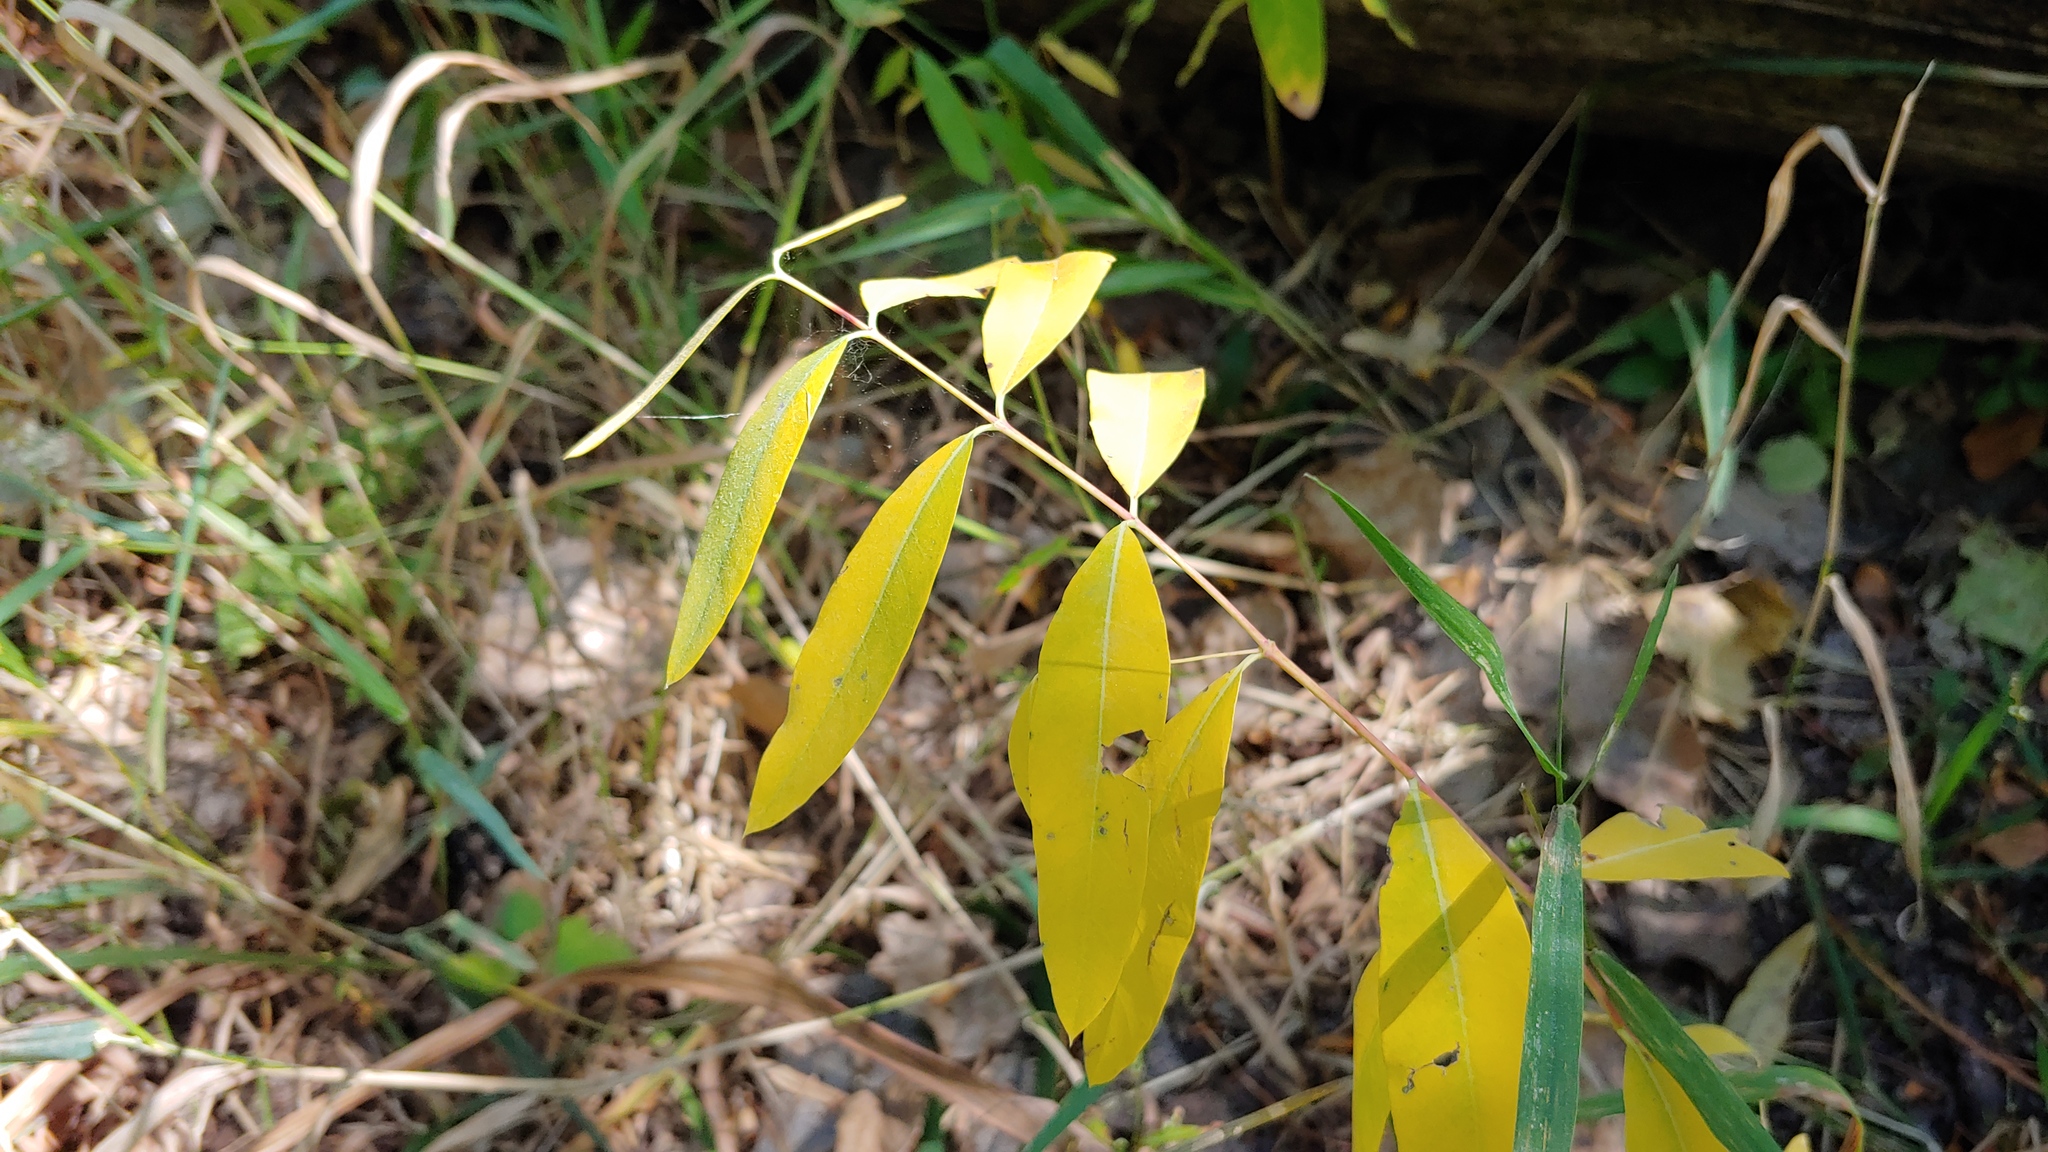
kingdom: Plantae
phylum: Tracheophyta
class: Magnoliopsida
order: Gentianales
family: Apocynaceae
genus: Apocynum
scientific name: Apocynum androsaemifolium
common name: Spreading dogbane
